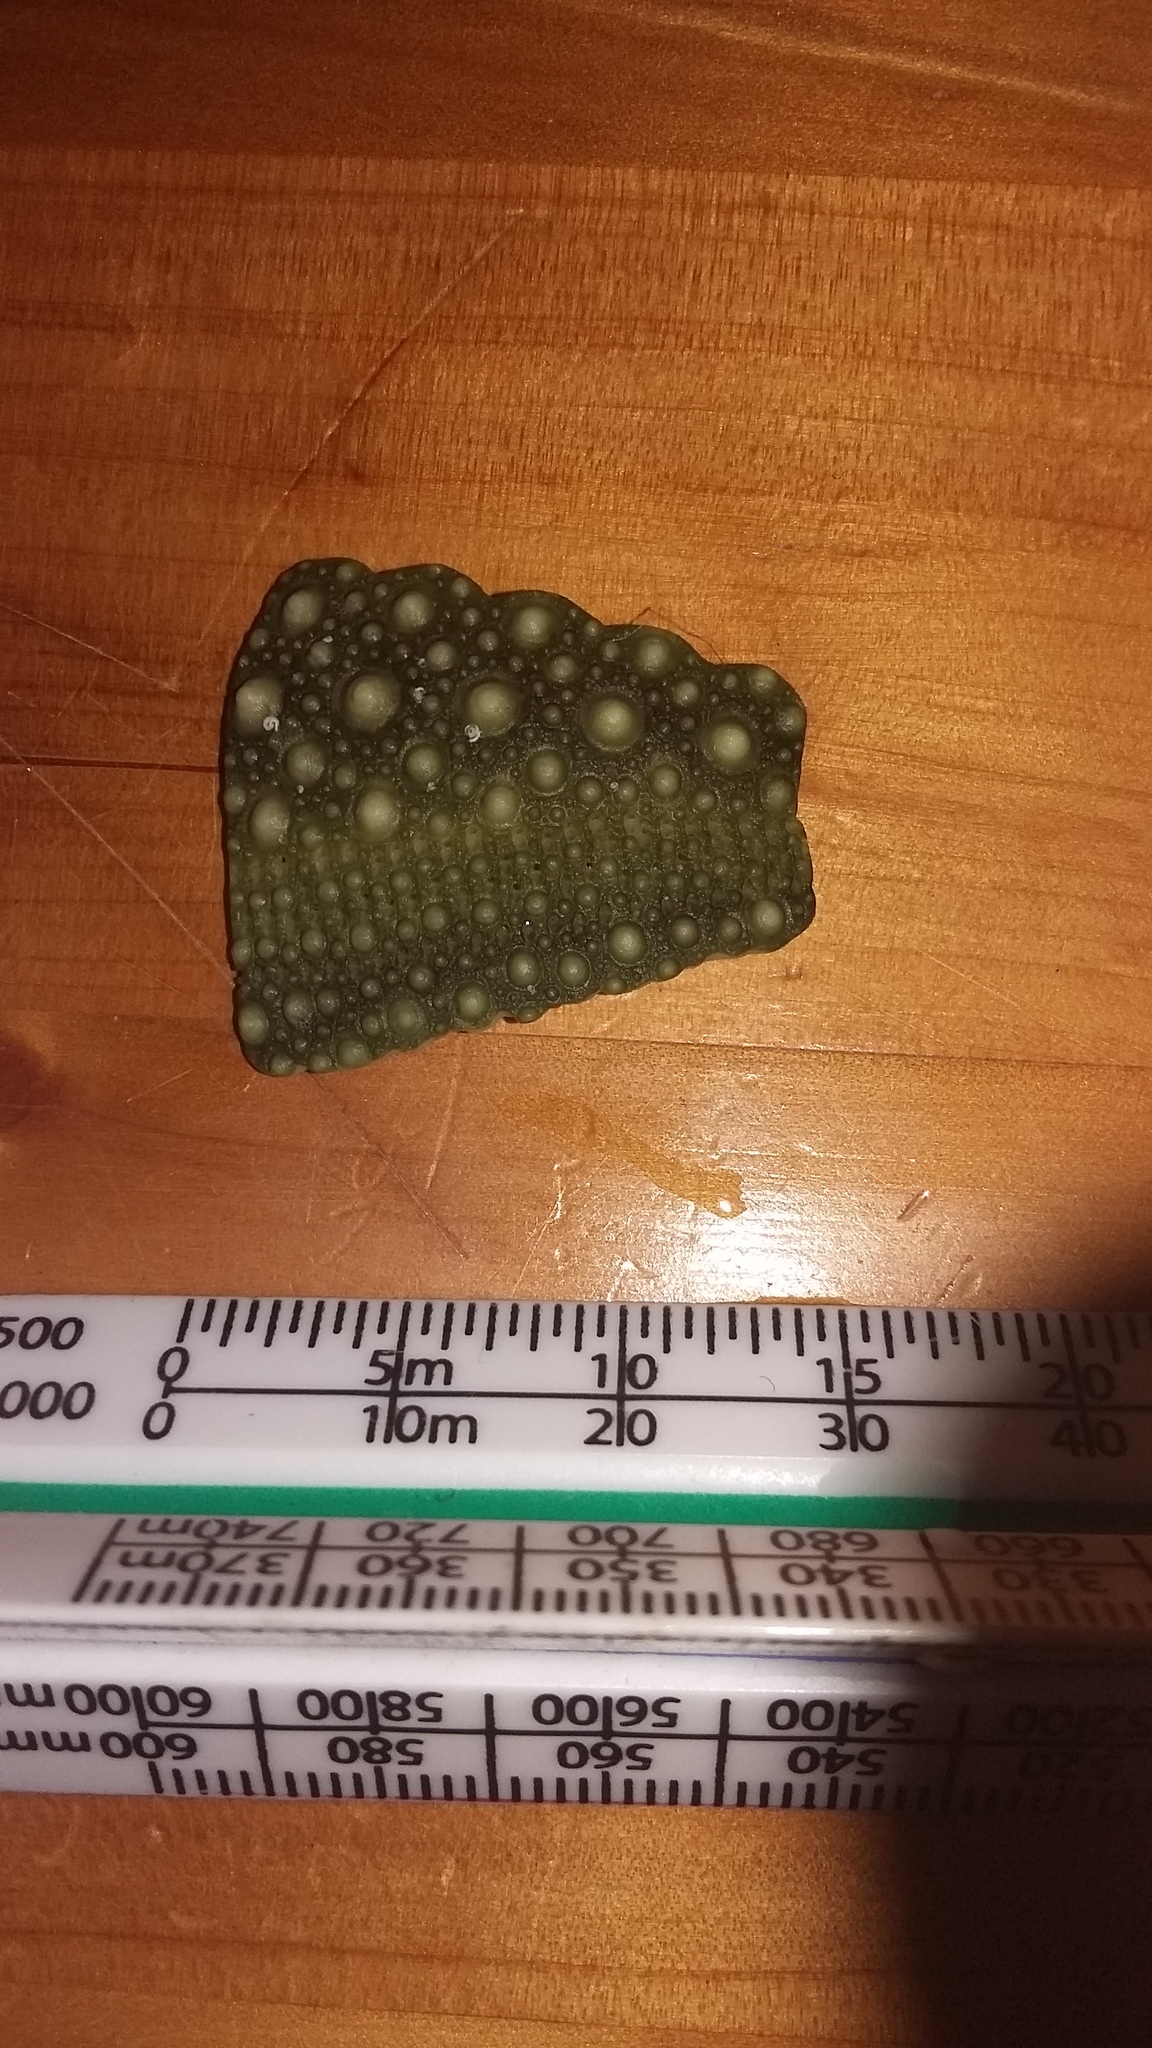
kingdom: Animalia
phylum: Echinodermata
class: Echinoidea
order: Camarodonta
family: Echinometridae
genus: Evechinus
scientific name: Evechinus chloroticus
